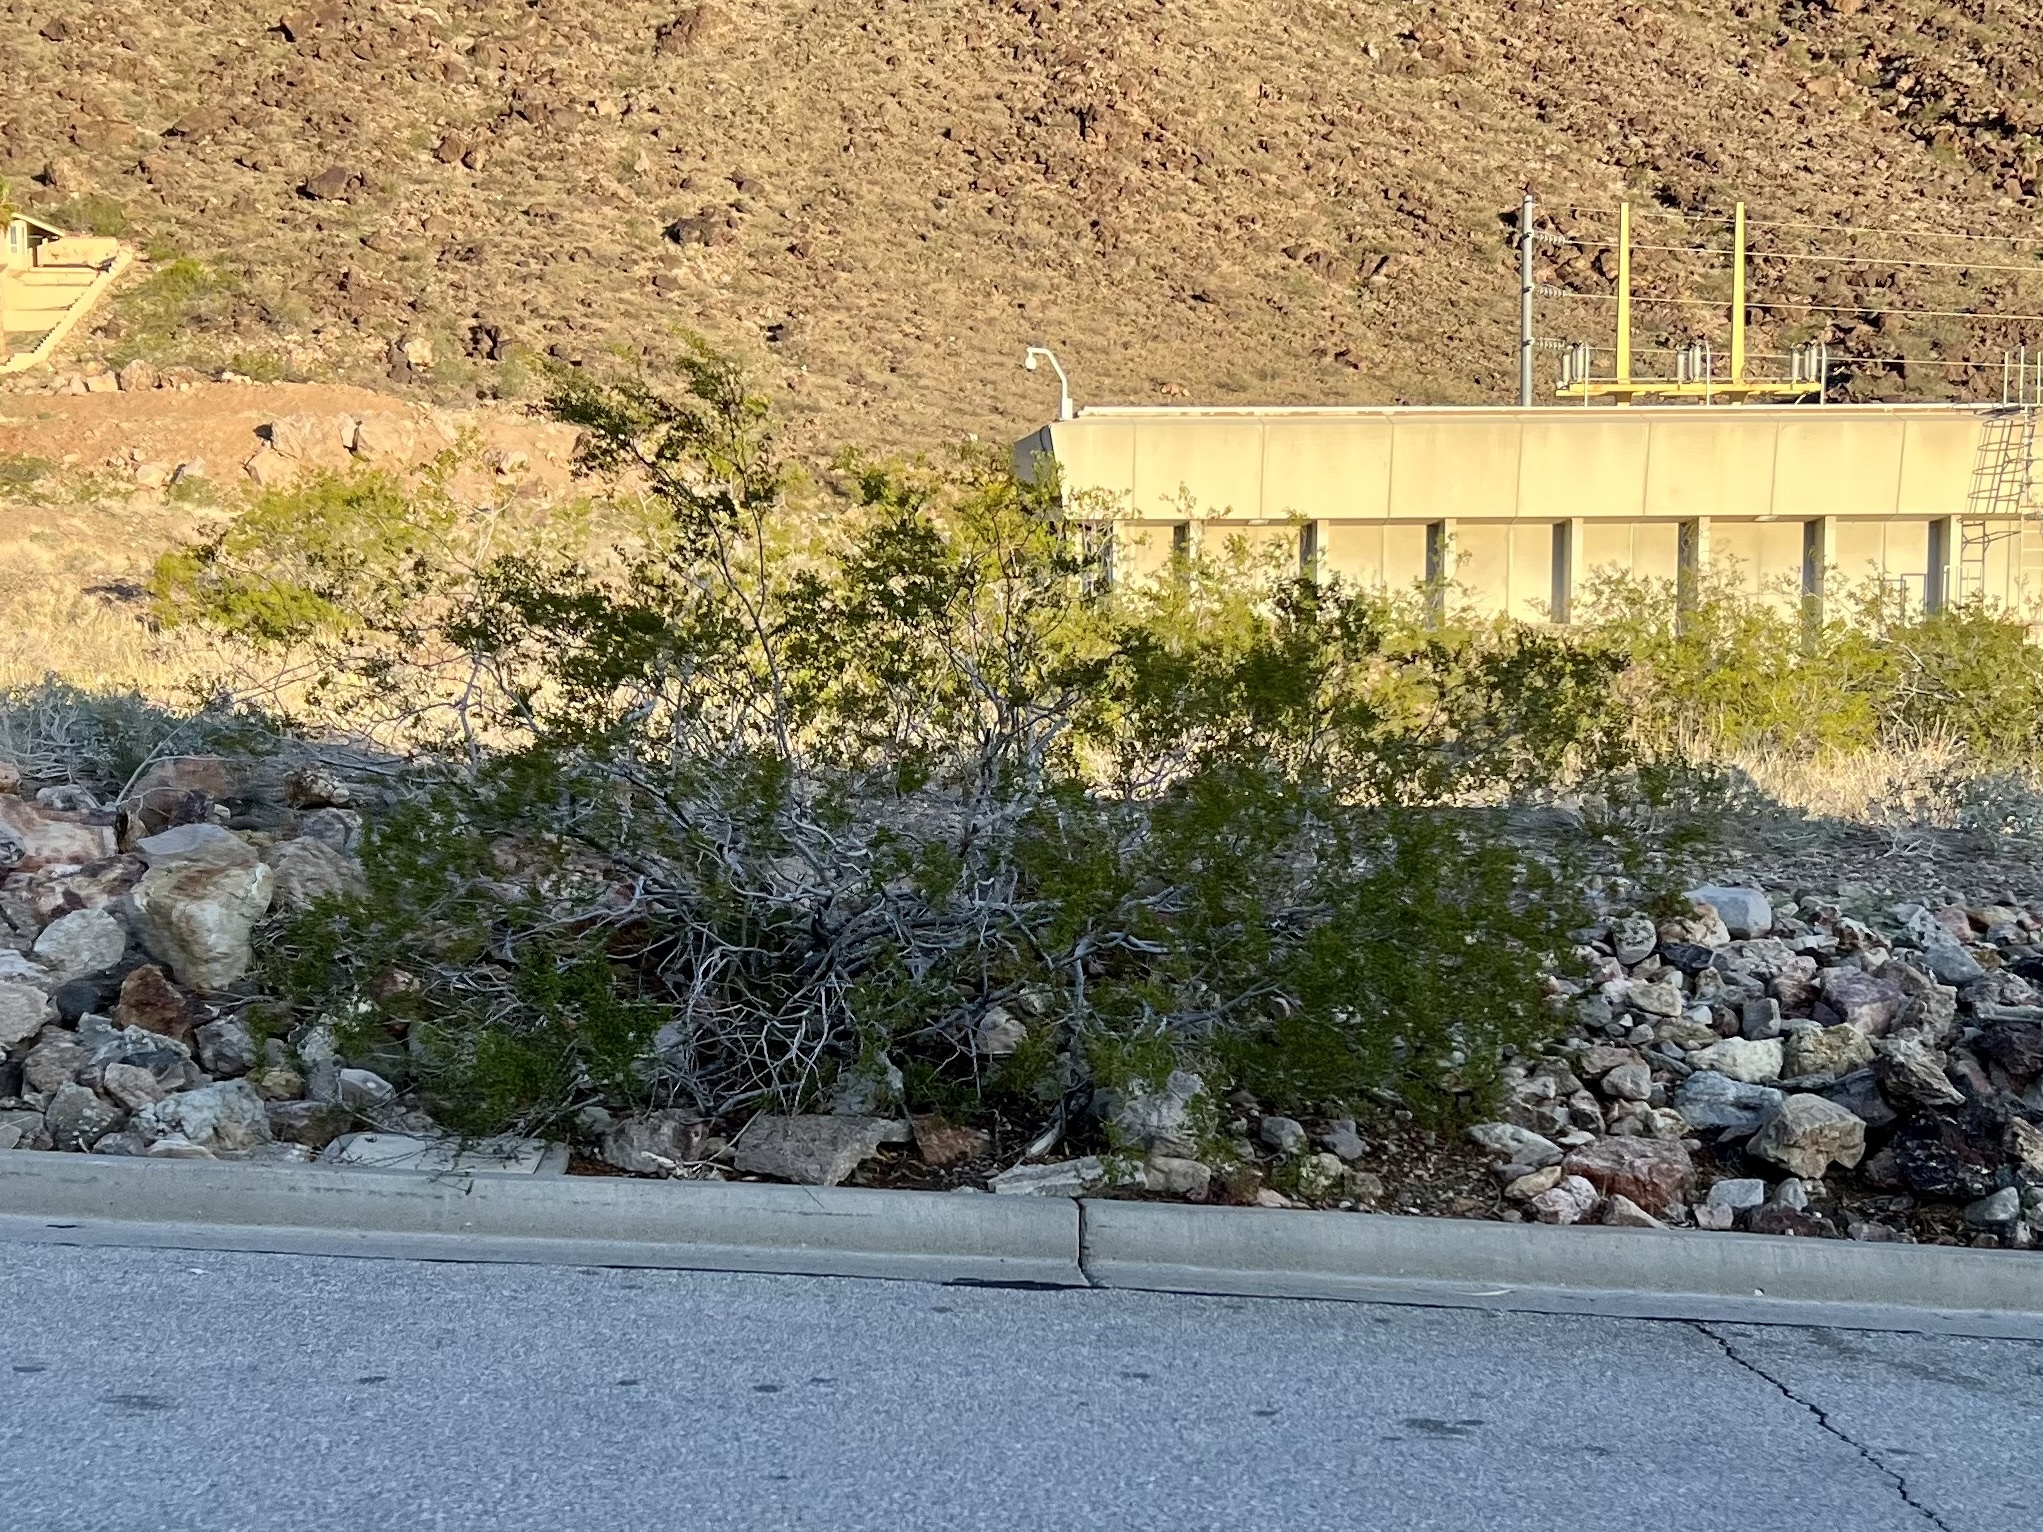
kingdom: Plantae
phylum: Tracheophyta
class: Magnoliopsida
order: Zygophyllales
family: Zygophyllaceae
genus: Larrea
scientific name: Larrea tridentata
